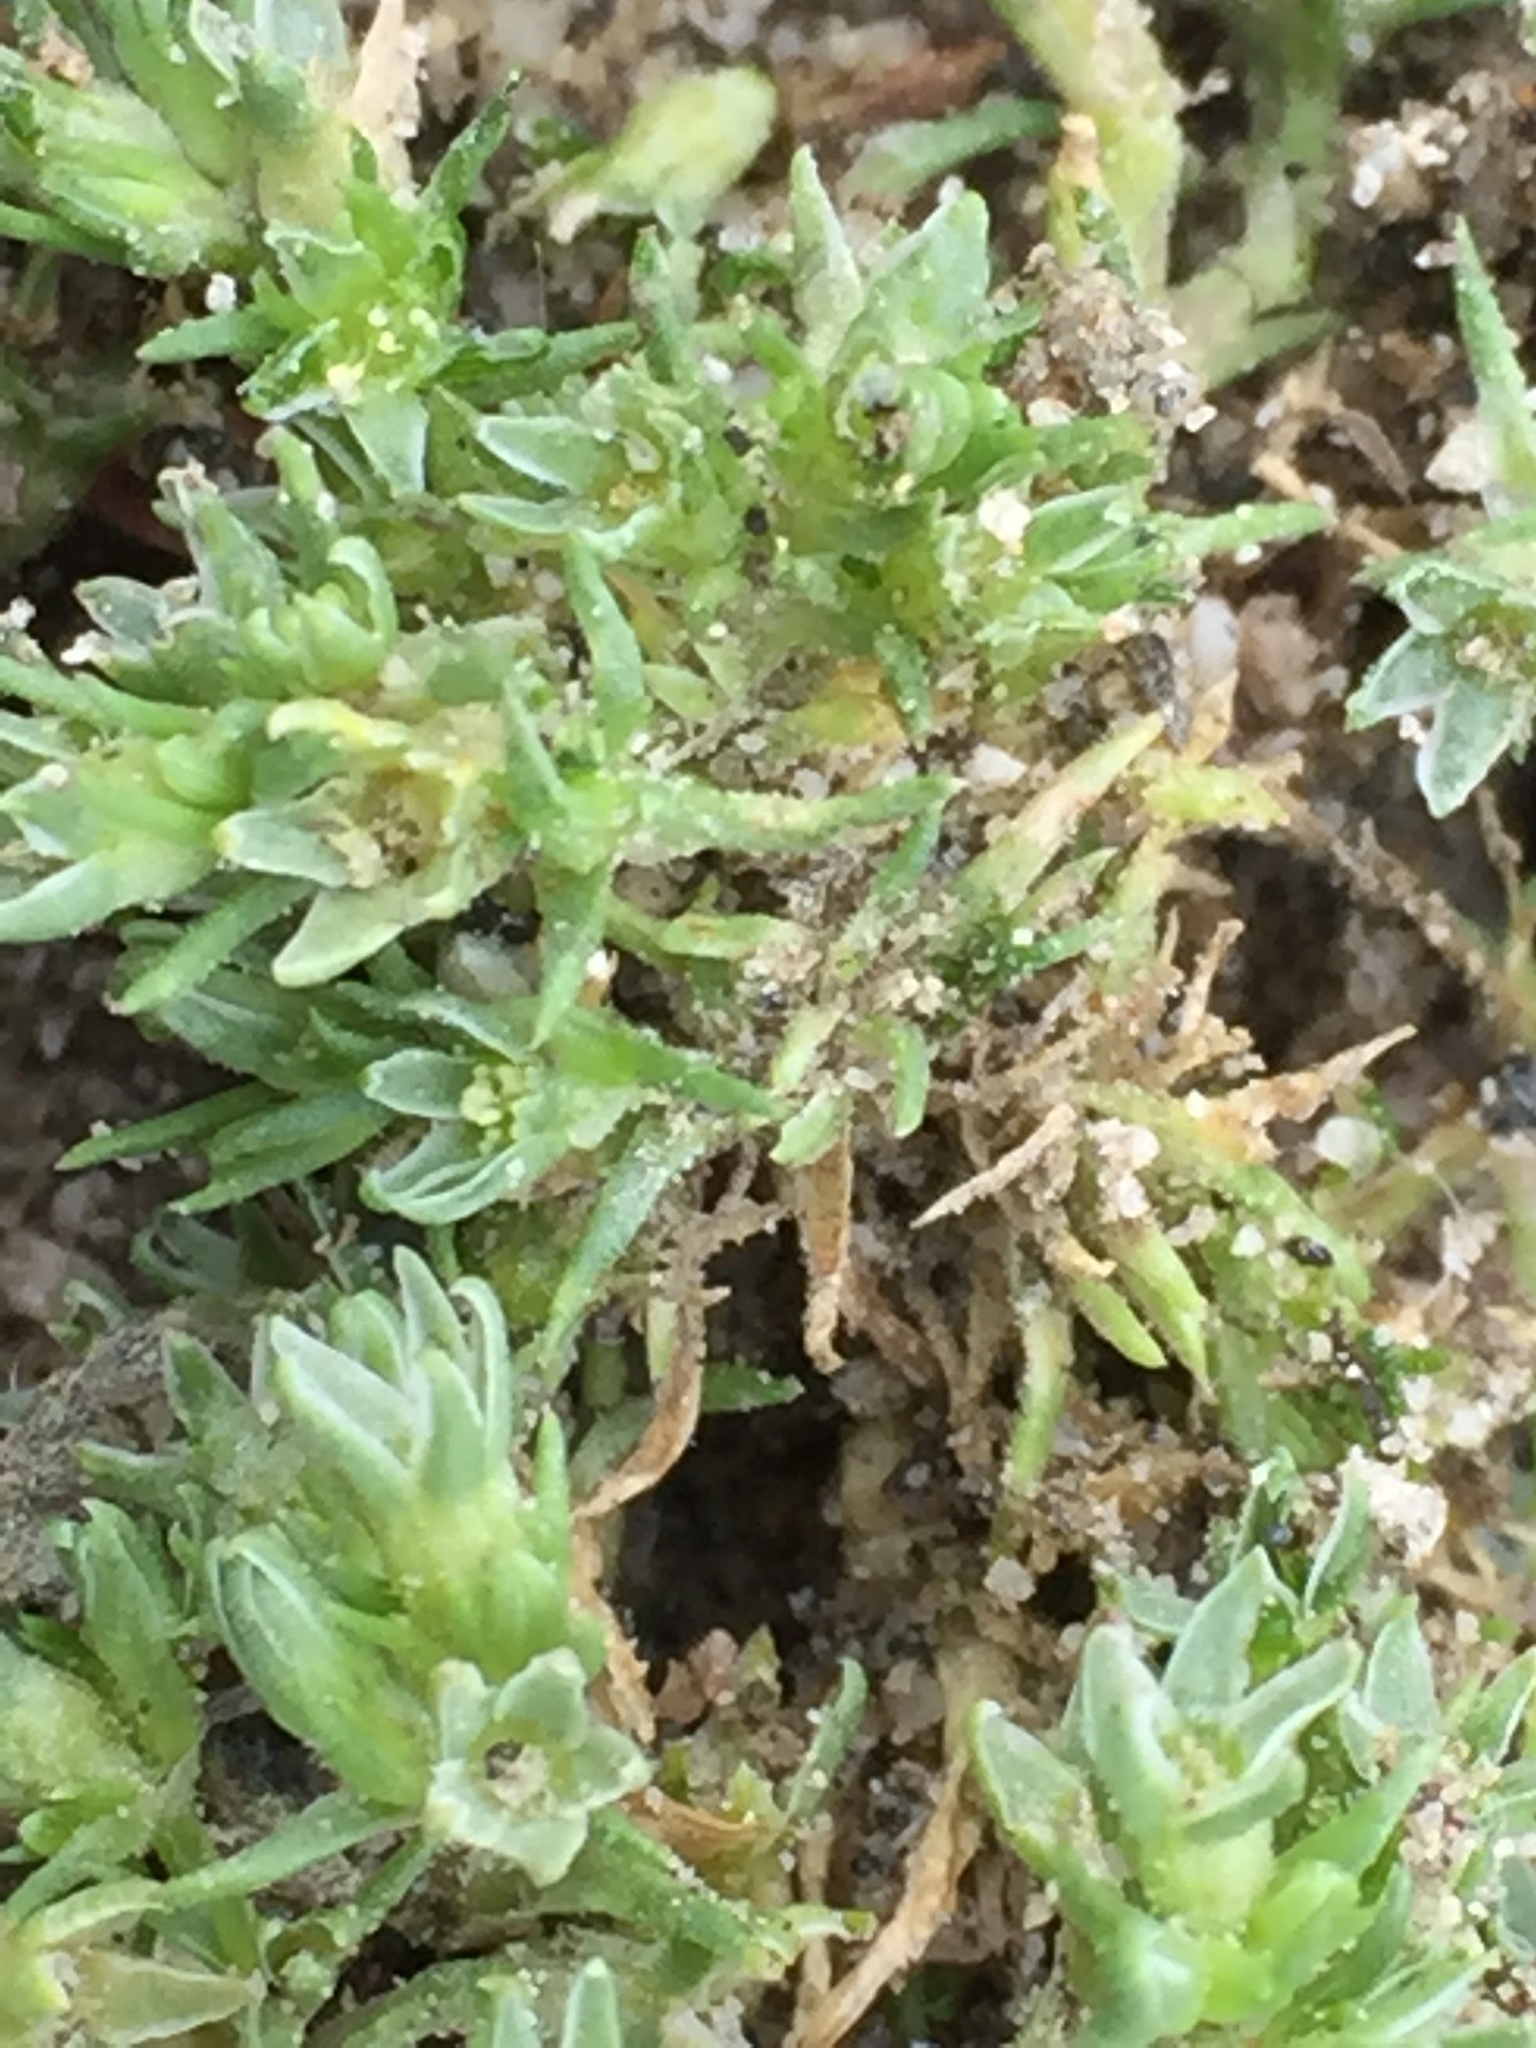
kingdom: Plantae
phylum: Tracheophyta
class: Magnoliopsida
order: Caryophyllales
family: Caryophyllaceae
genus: Scleranthus
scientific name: Scleranthus annuus
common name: Annual knawel
